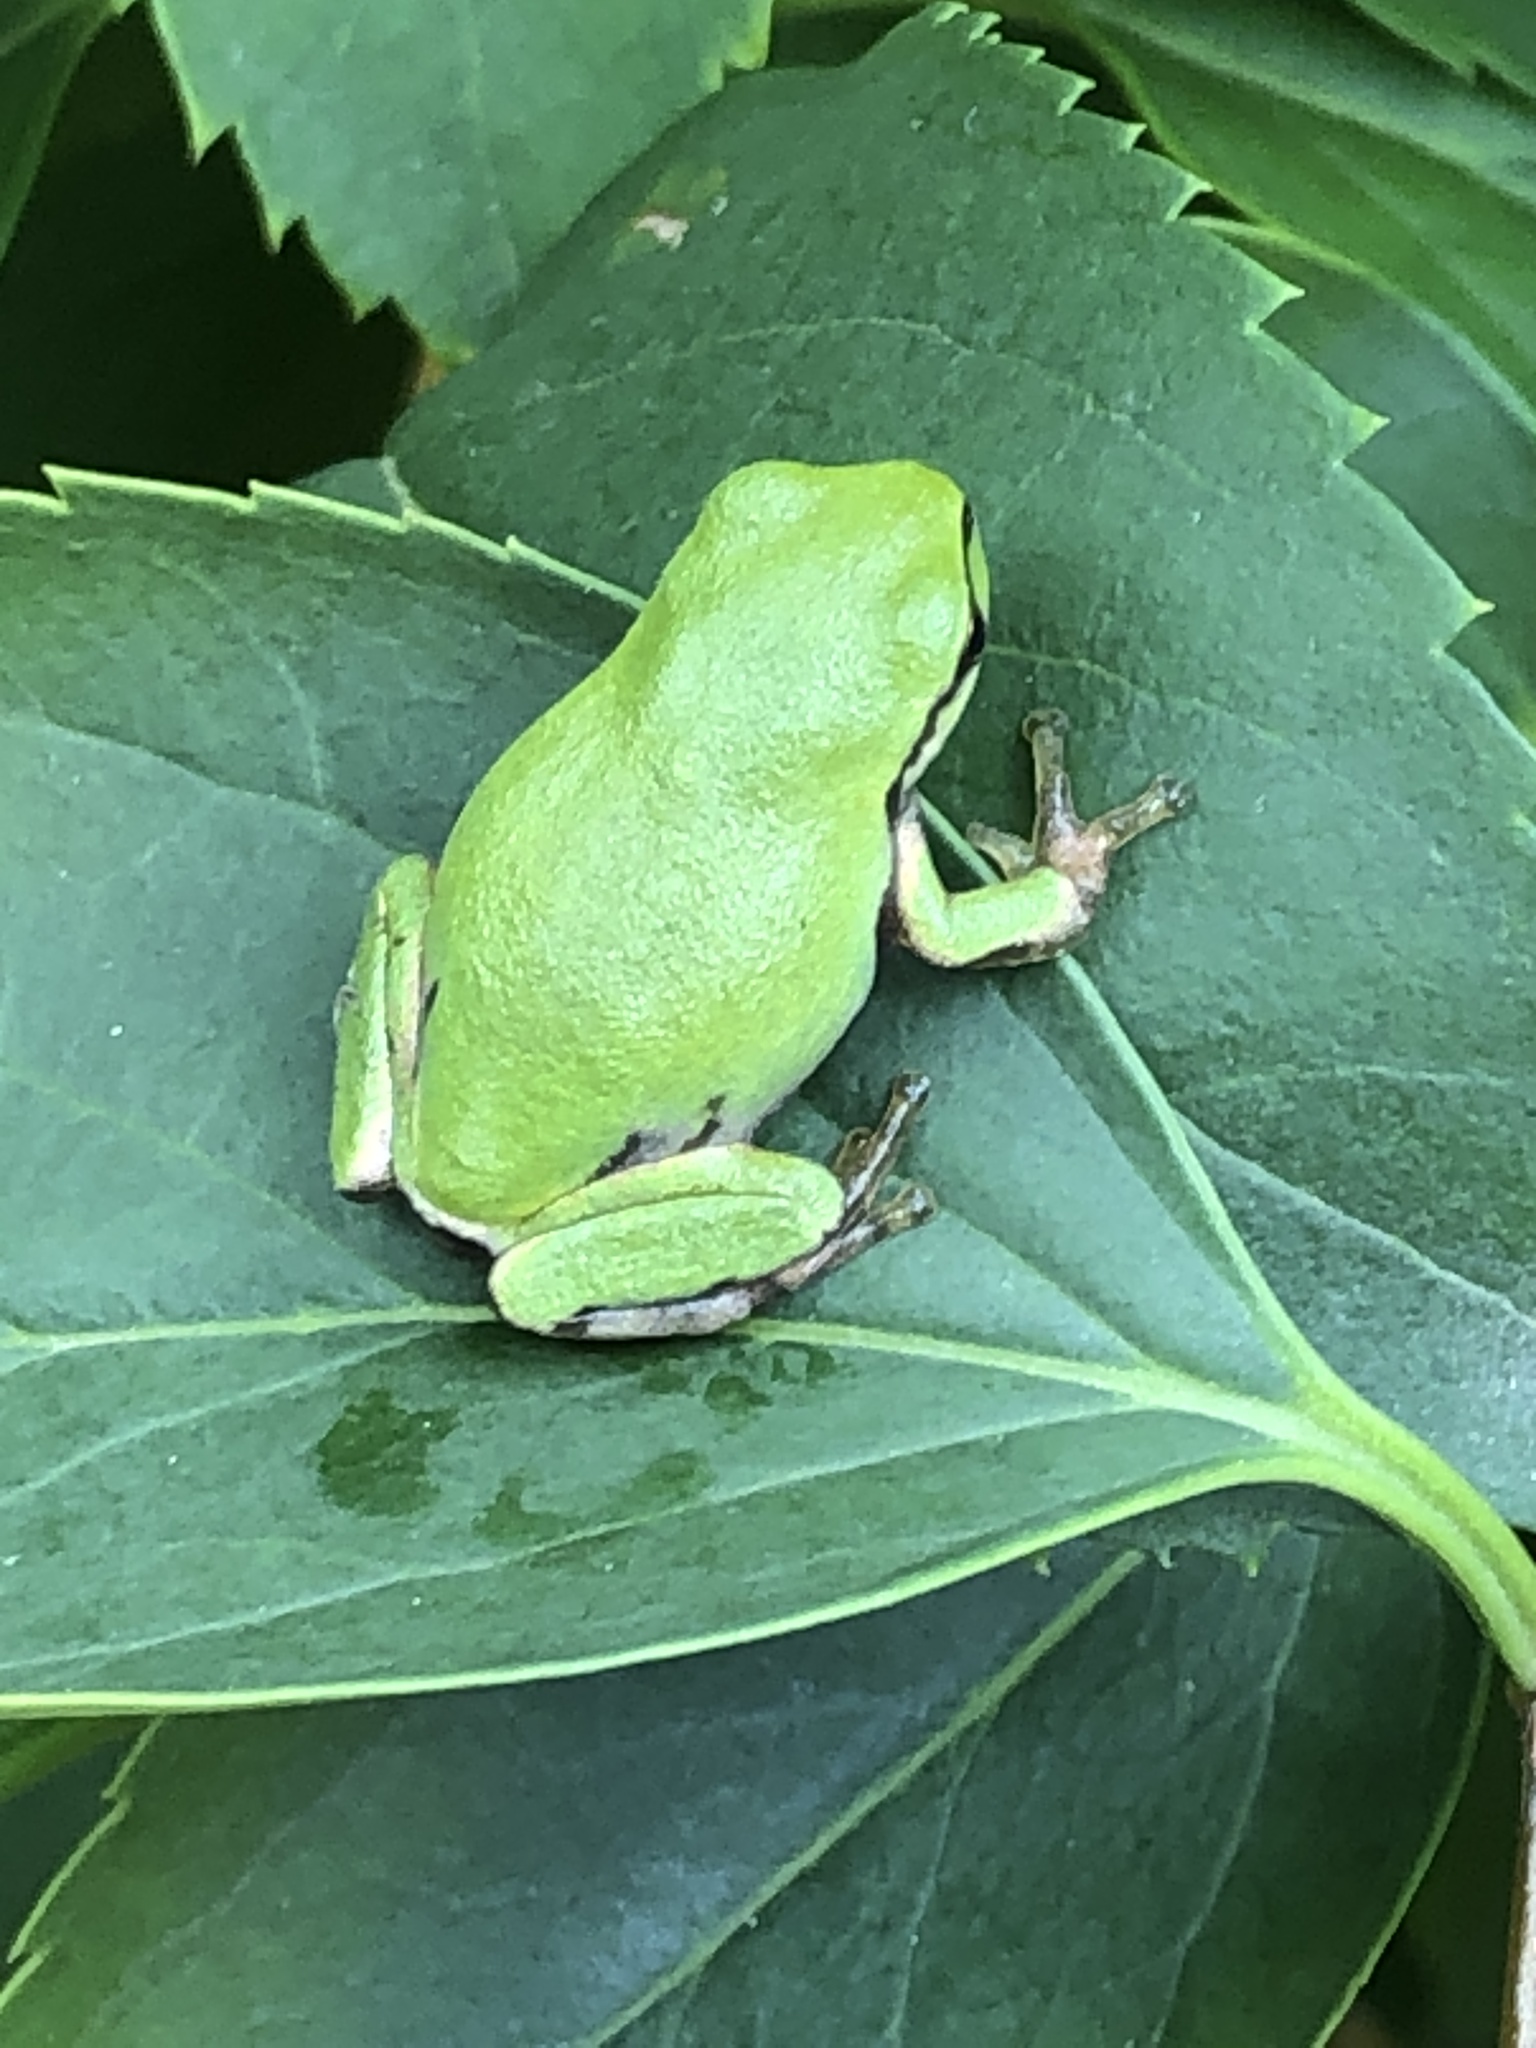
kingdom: Animalia
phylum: Chordata
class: Amphibia
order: Anura
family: Hylidae
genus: Dryophytes
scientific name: Dryophytes japonicus
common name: Japanese treefrog
